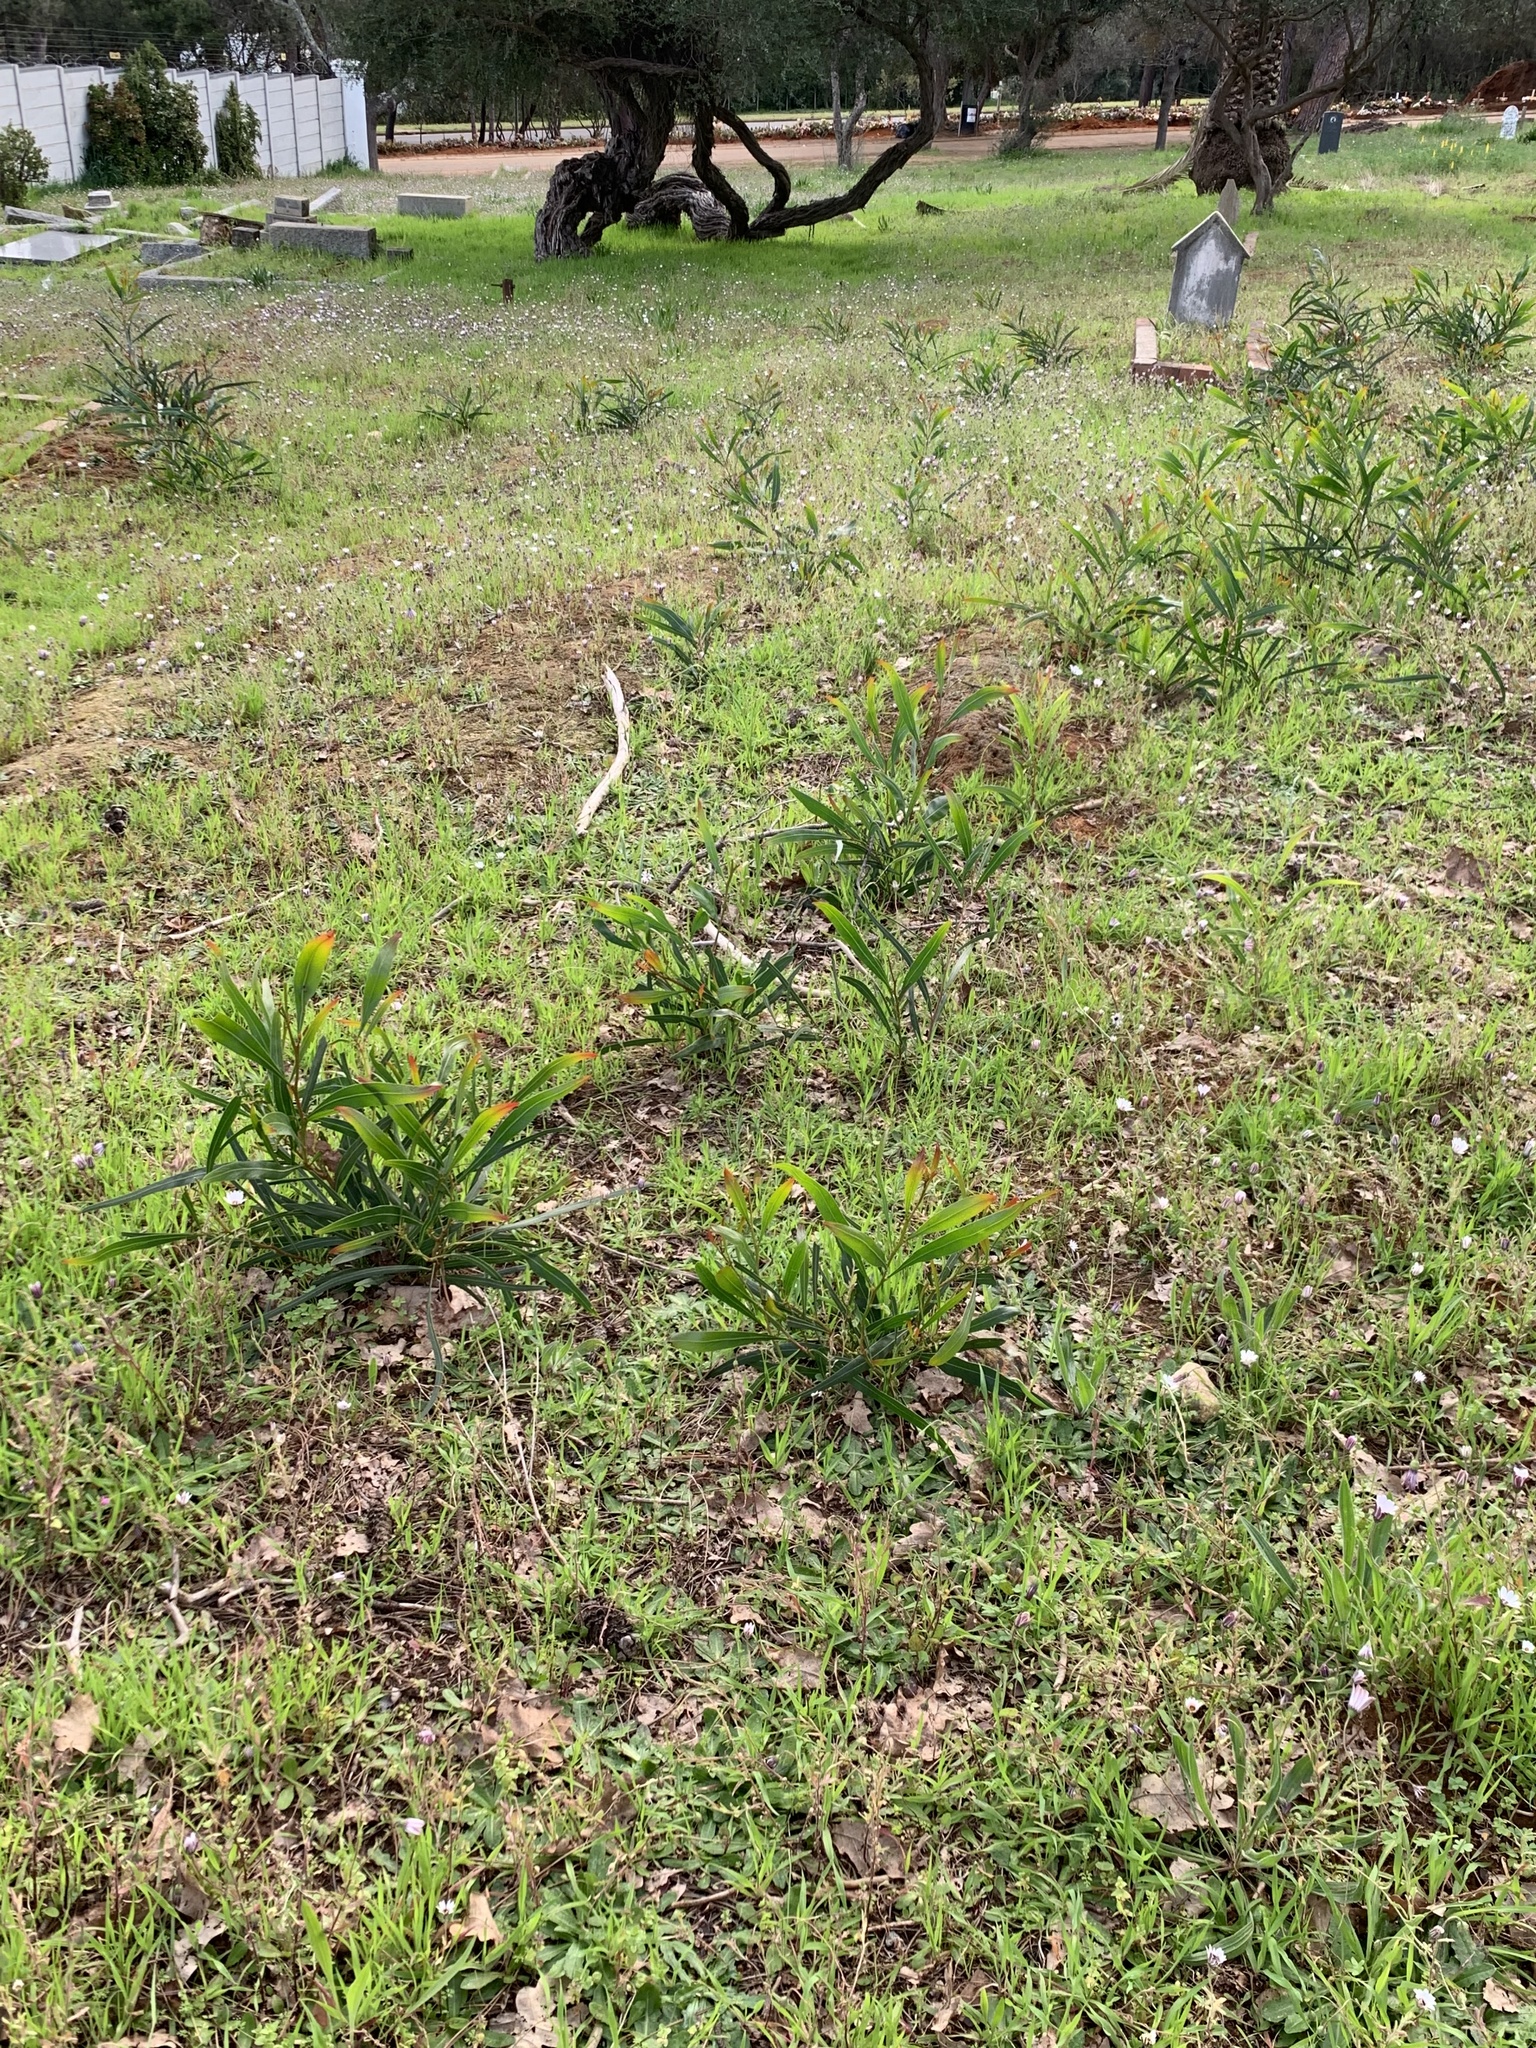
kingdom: Plantae
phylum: Tracheophyta
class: Magnoliopsida
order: Fabales
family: Fabaceae
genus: Acacia
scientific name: Acacia saligna
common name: Orange wattle
